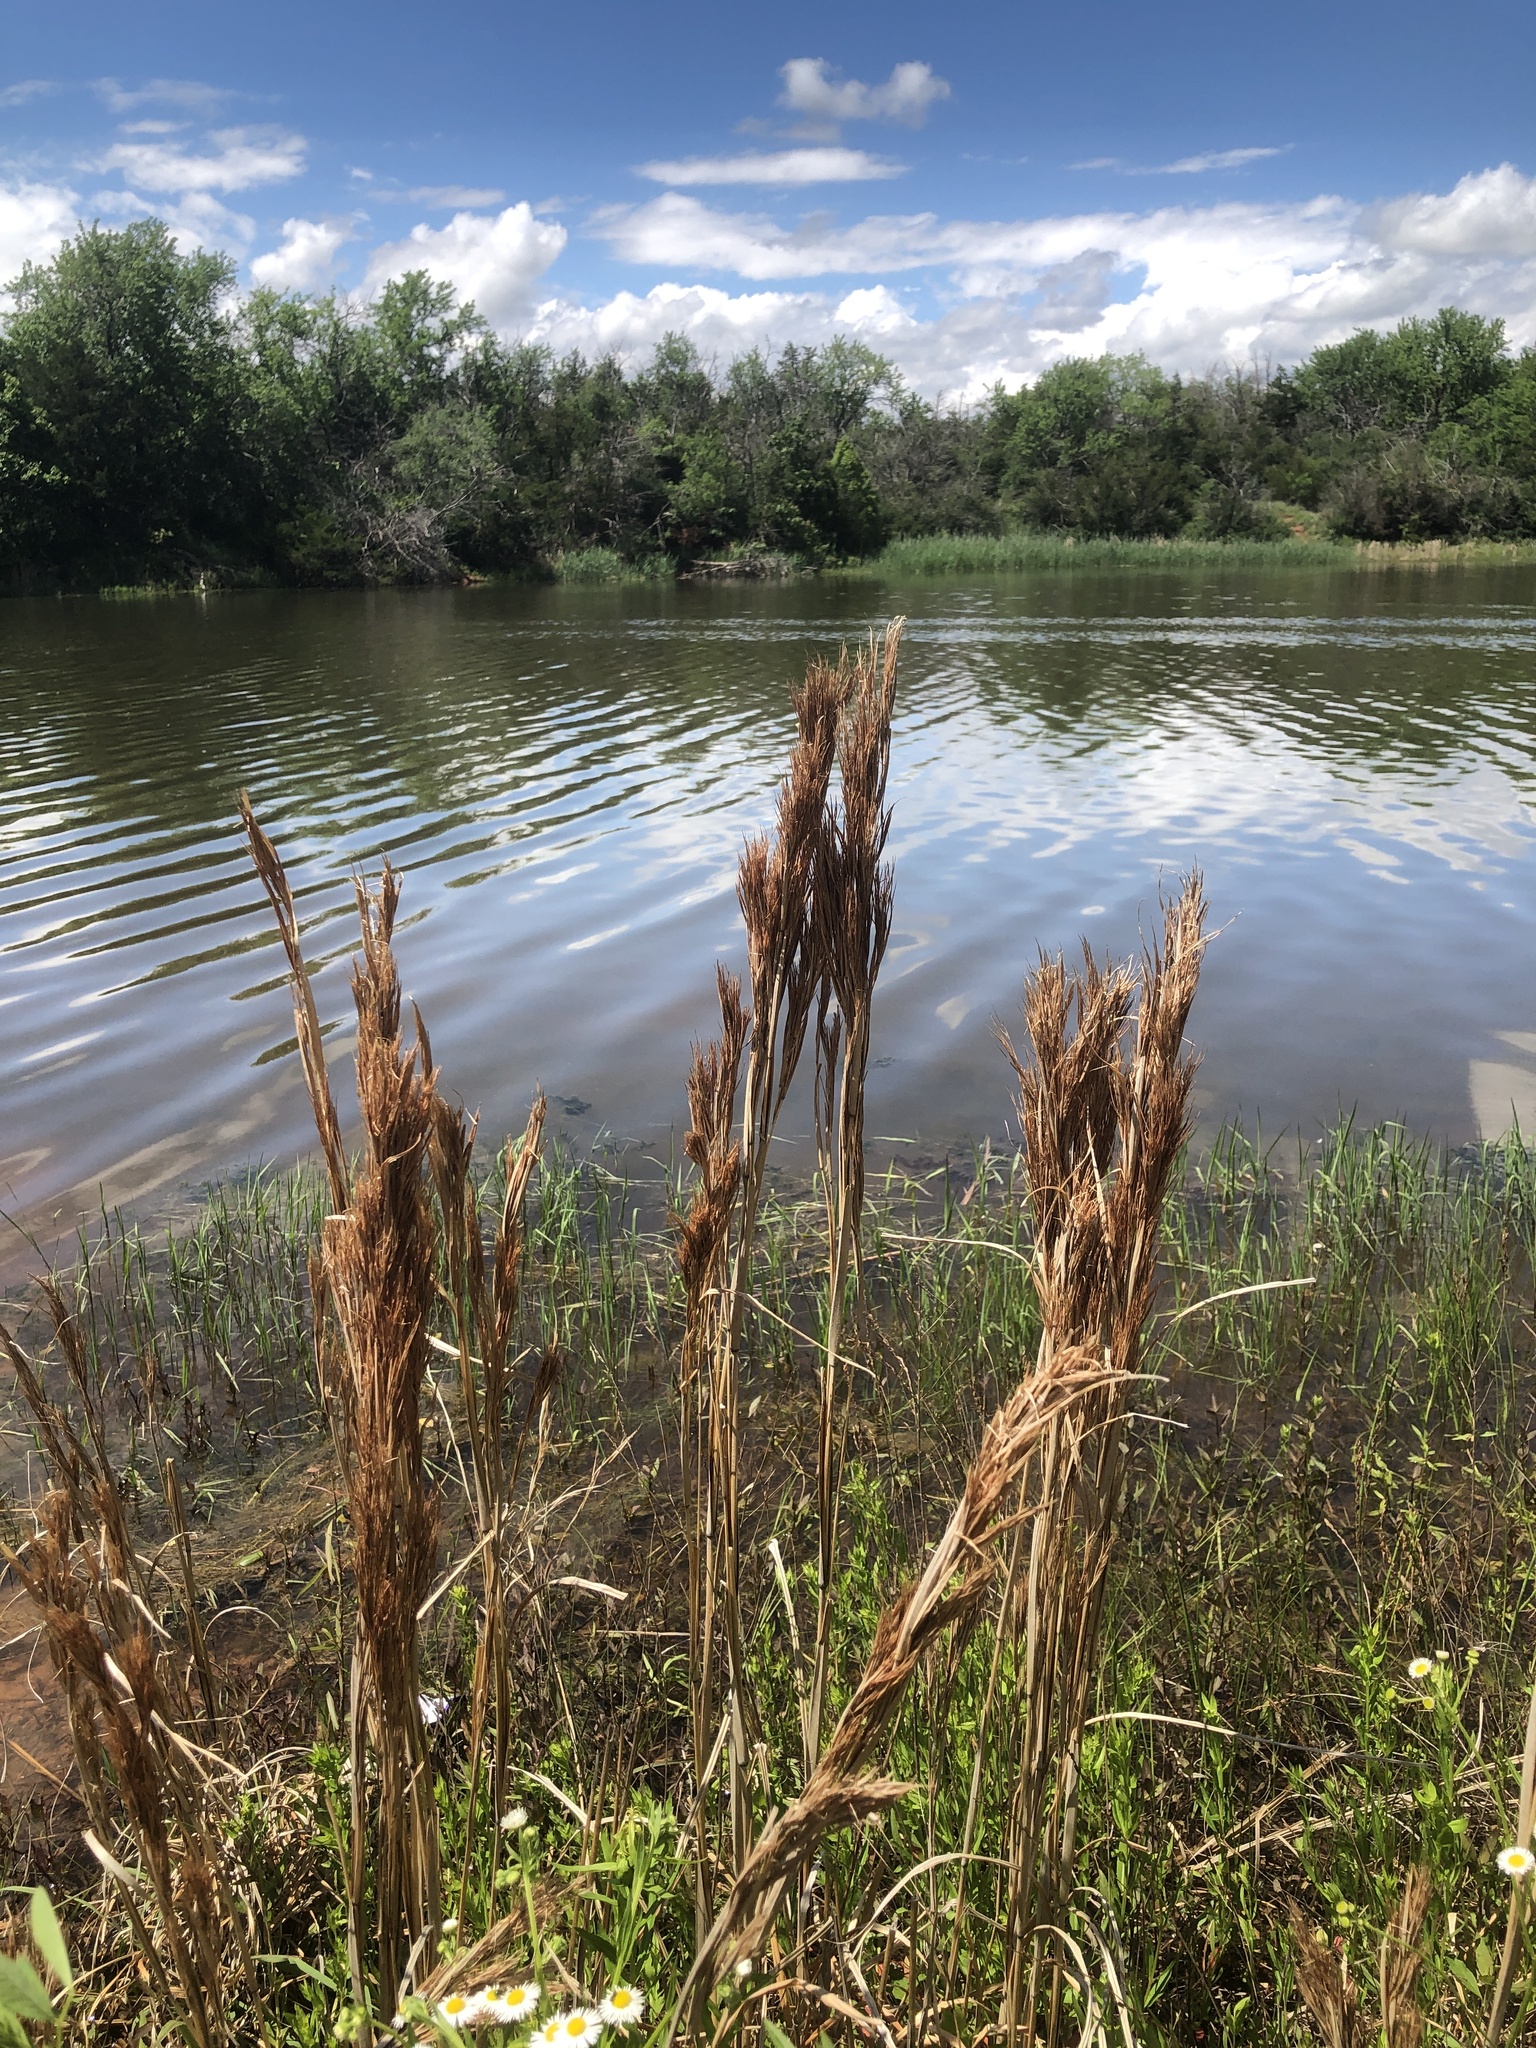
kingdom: Plantae
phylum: Tracheophyta
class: Liliopsida
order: Poales
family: Poaceae
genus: Andropogon
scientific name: Andropogon tenuispatheus
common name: Bushy bluestem
